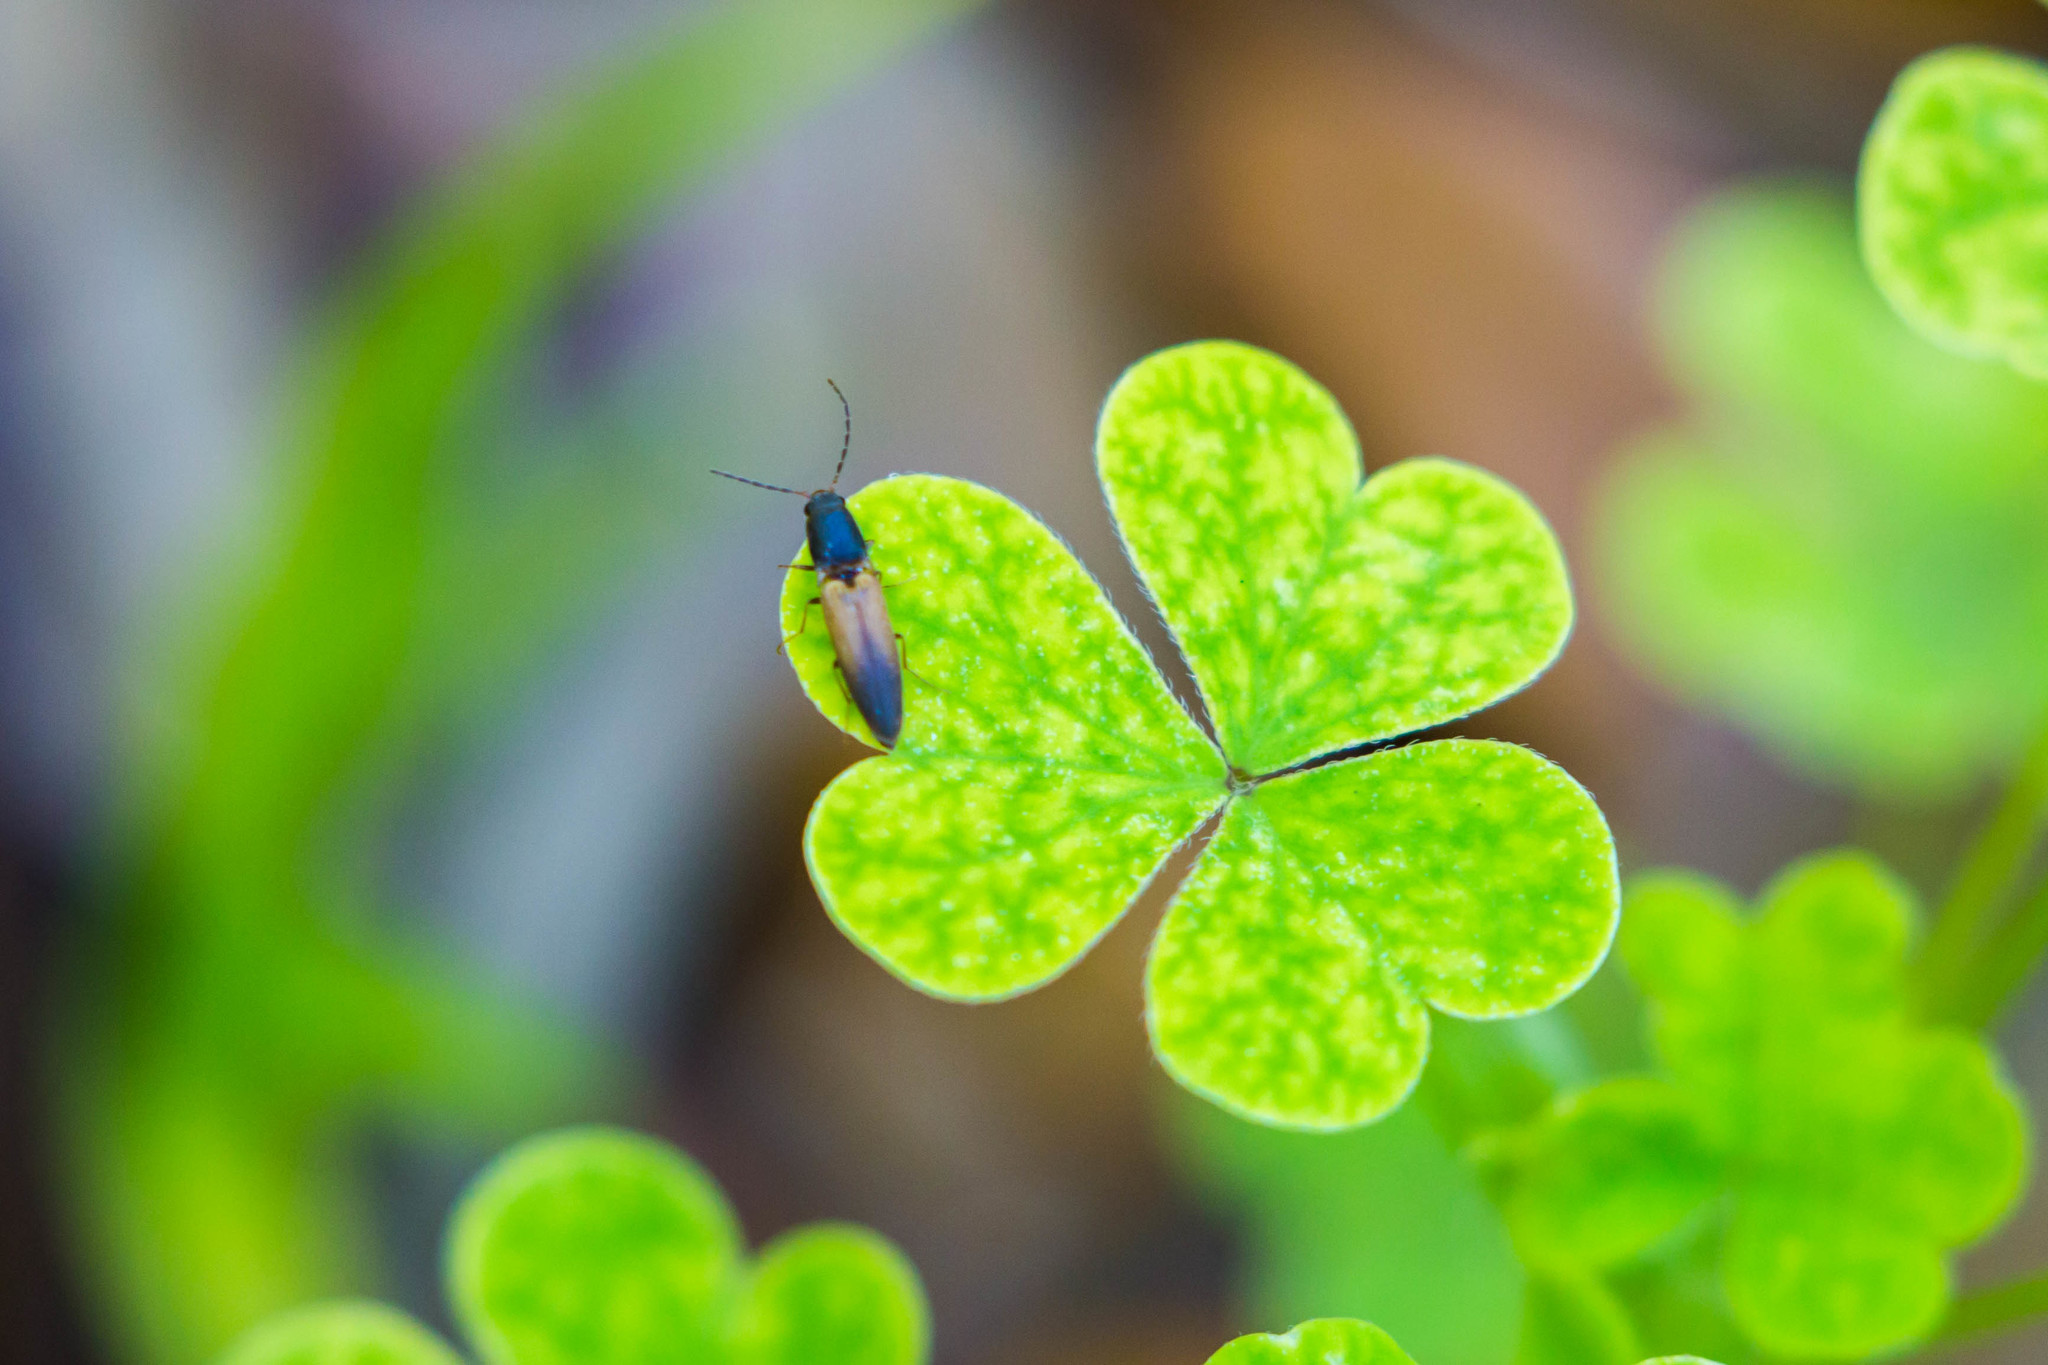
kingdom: Animalia
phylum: Arthropoda
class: Insecta
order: Coleoptera
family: Elateridae
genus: Dolerosomus
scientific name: Dolerosomus silaceus
